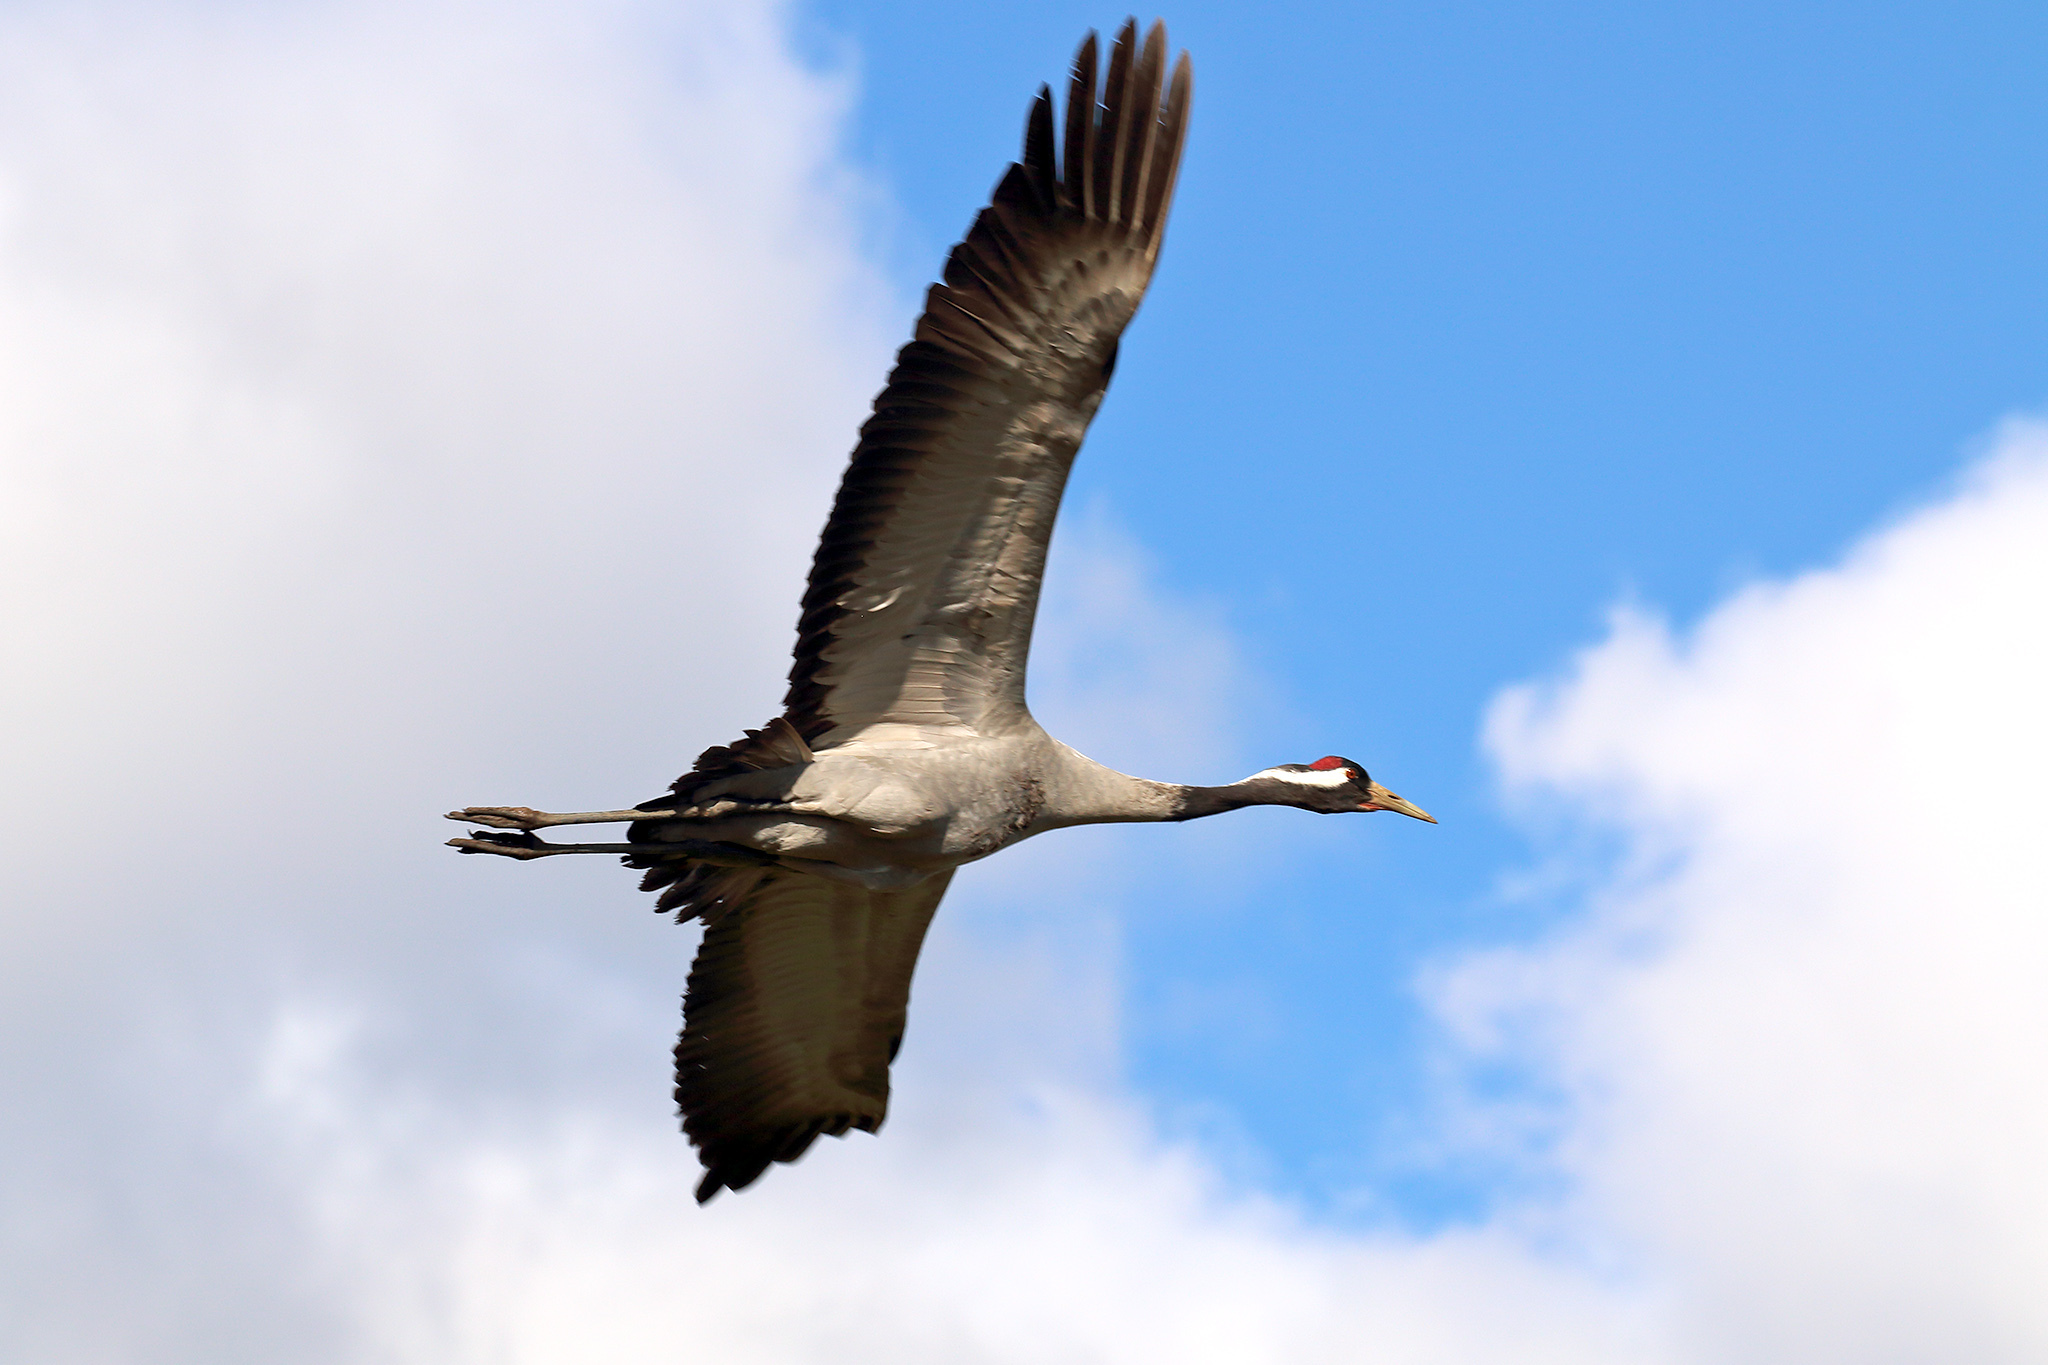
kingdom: Animalia
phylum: Chordata
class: Aves
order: Gruiformes
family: Gruidae
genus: Grus
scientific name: Grus grus
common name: Common crane
